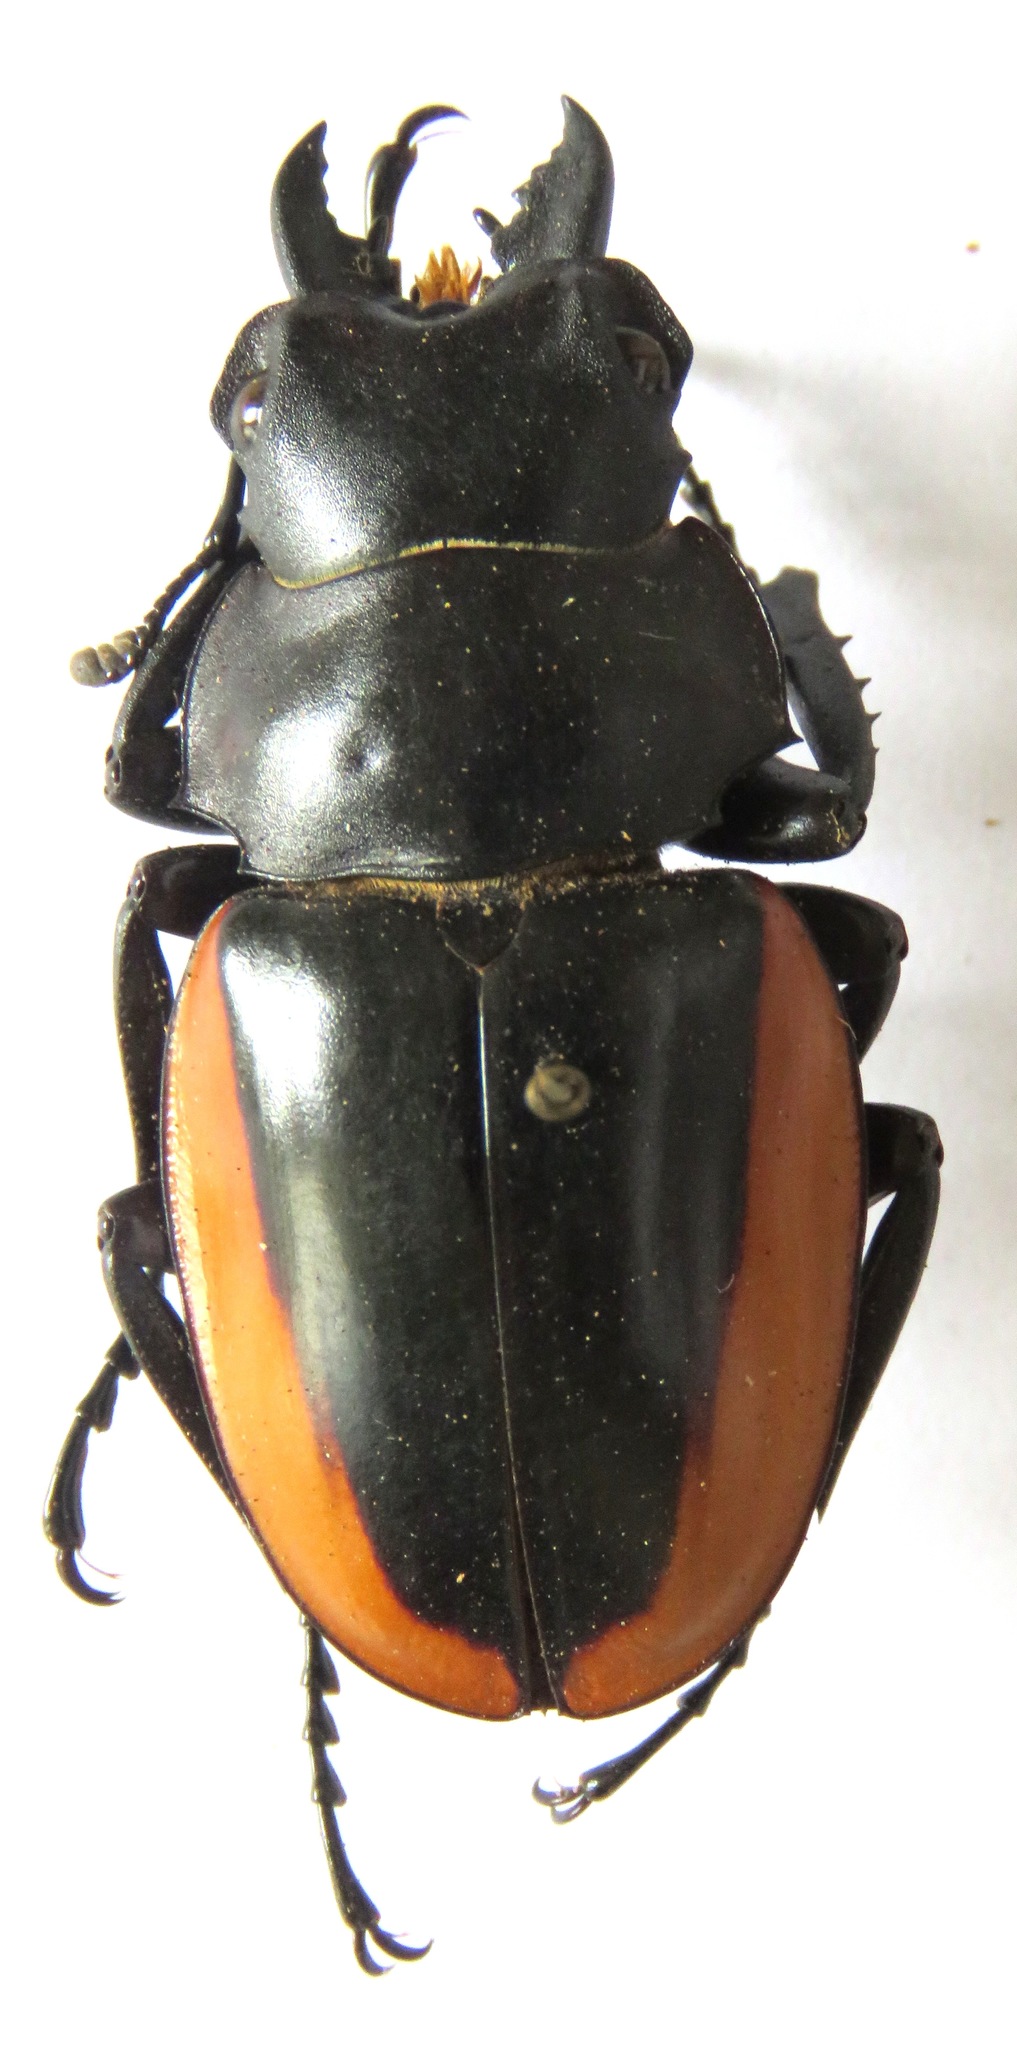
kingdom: Animalia
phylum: Arthropoda
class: Insecta
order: Coleoptera
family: Lucanidae
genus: Odontolabis
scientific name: Odontolabis cuvera
